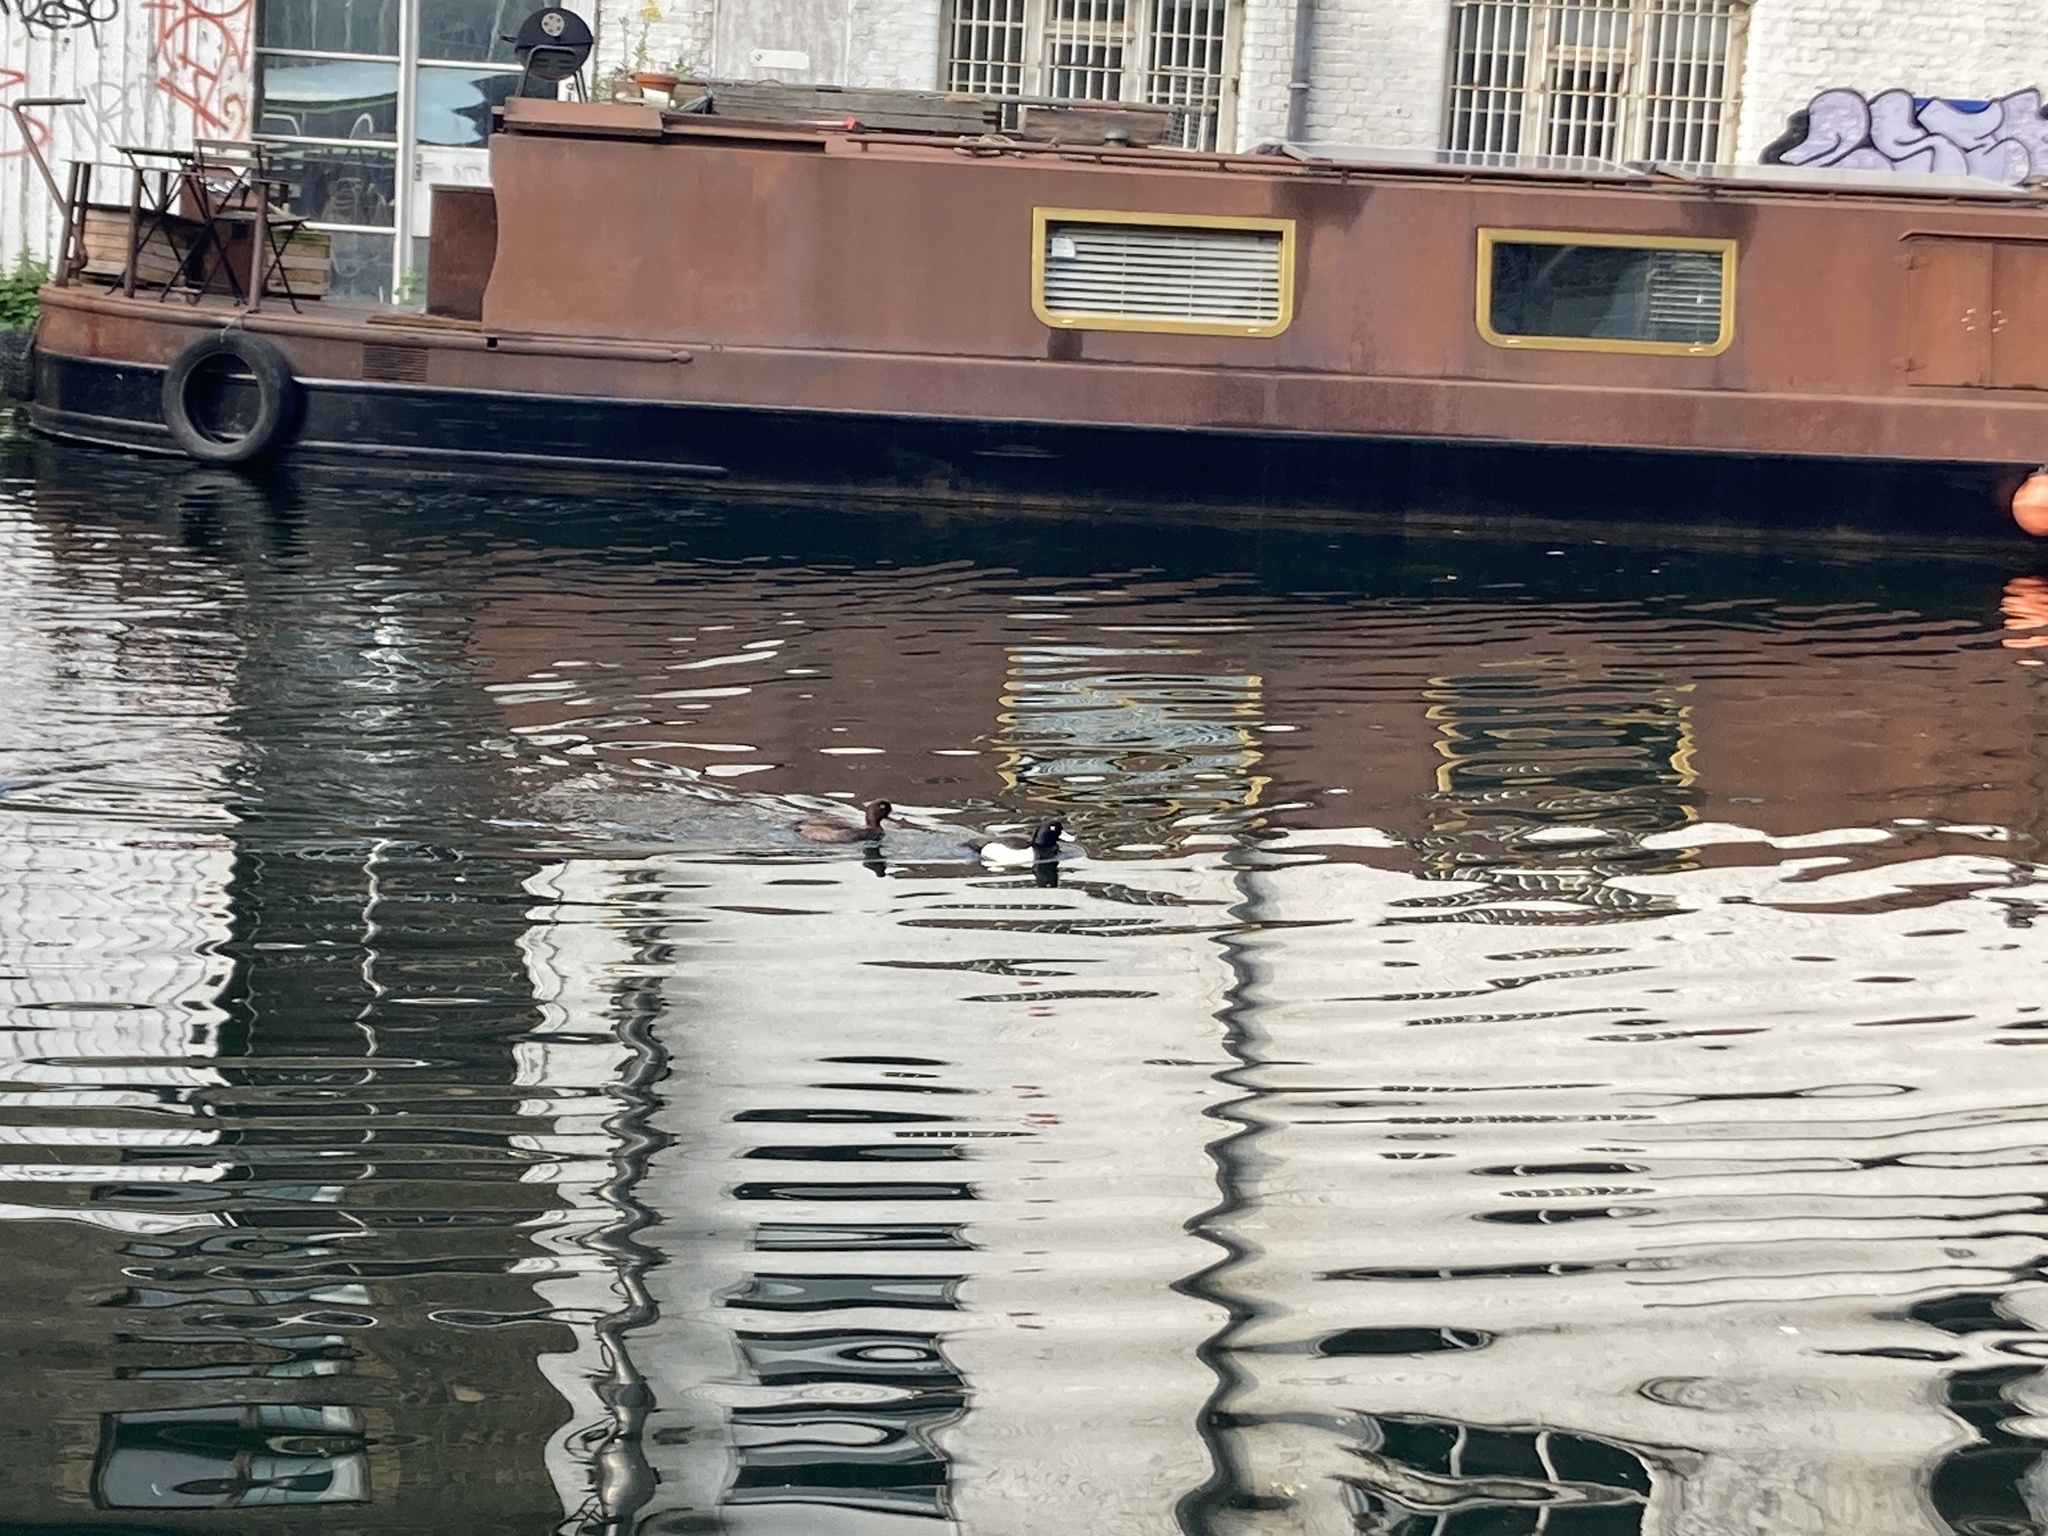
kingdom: Animalia
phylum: Chordata
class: Aves
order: Anseriformes
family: Anatidae
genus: Aythya
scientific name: Aythya fuligula
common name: Tufted duck
